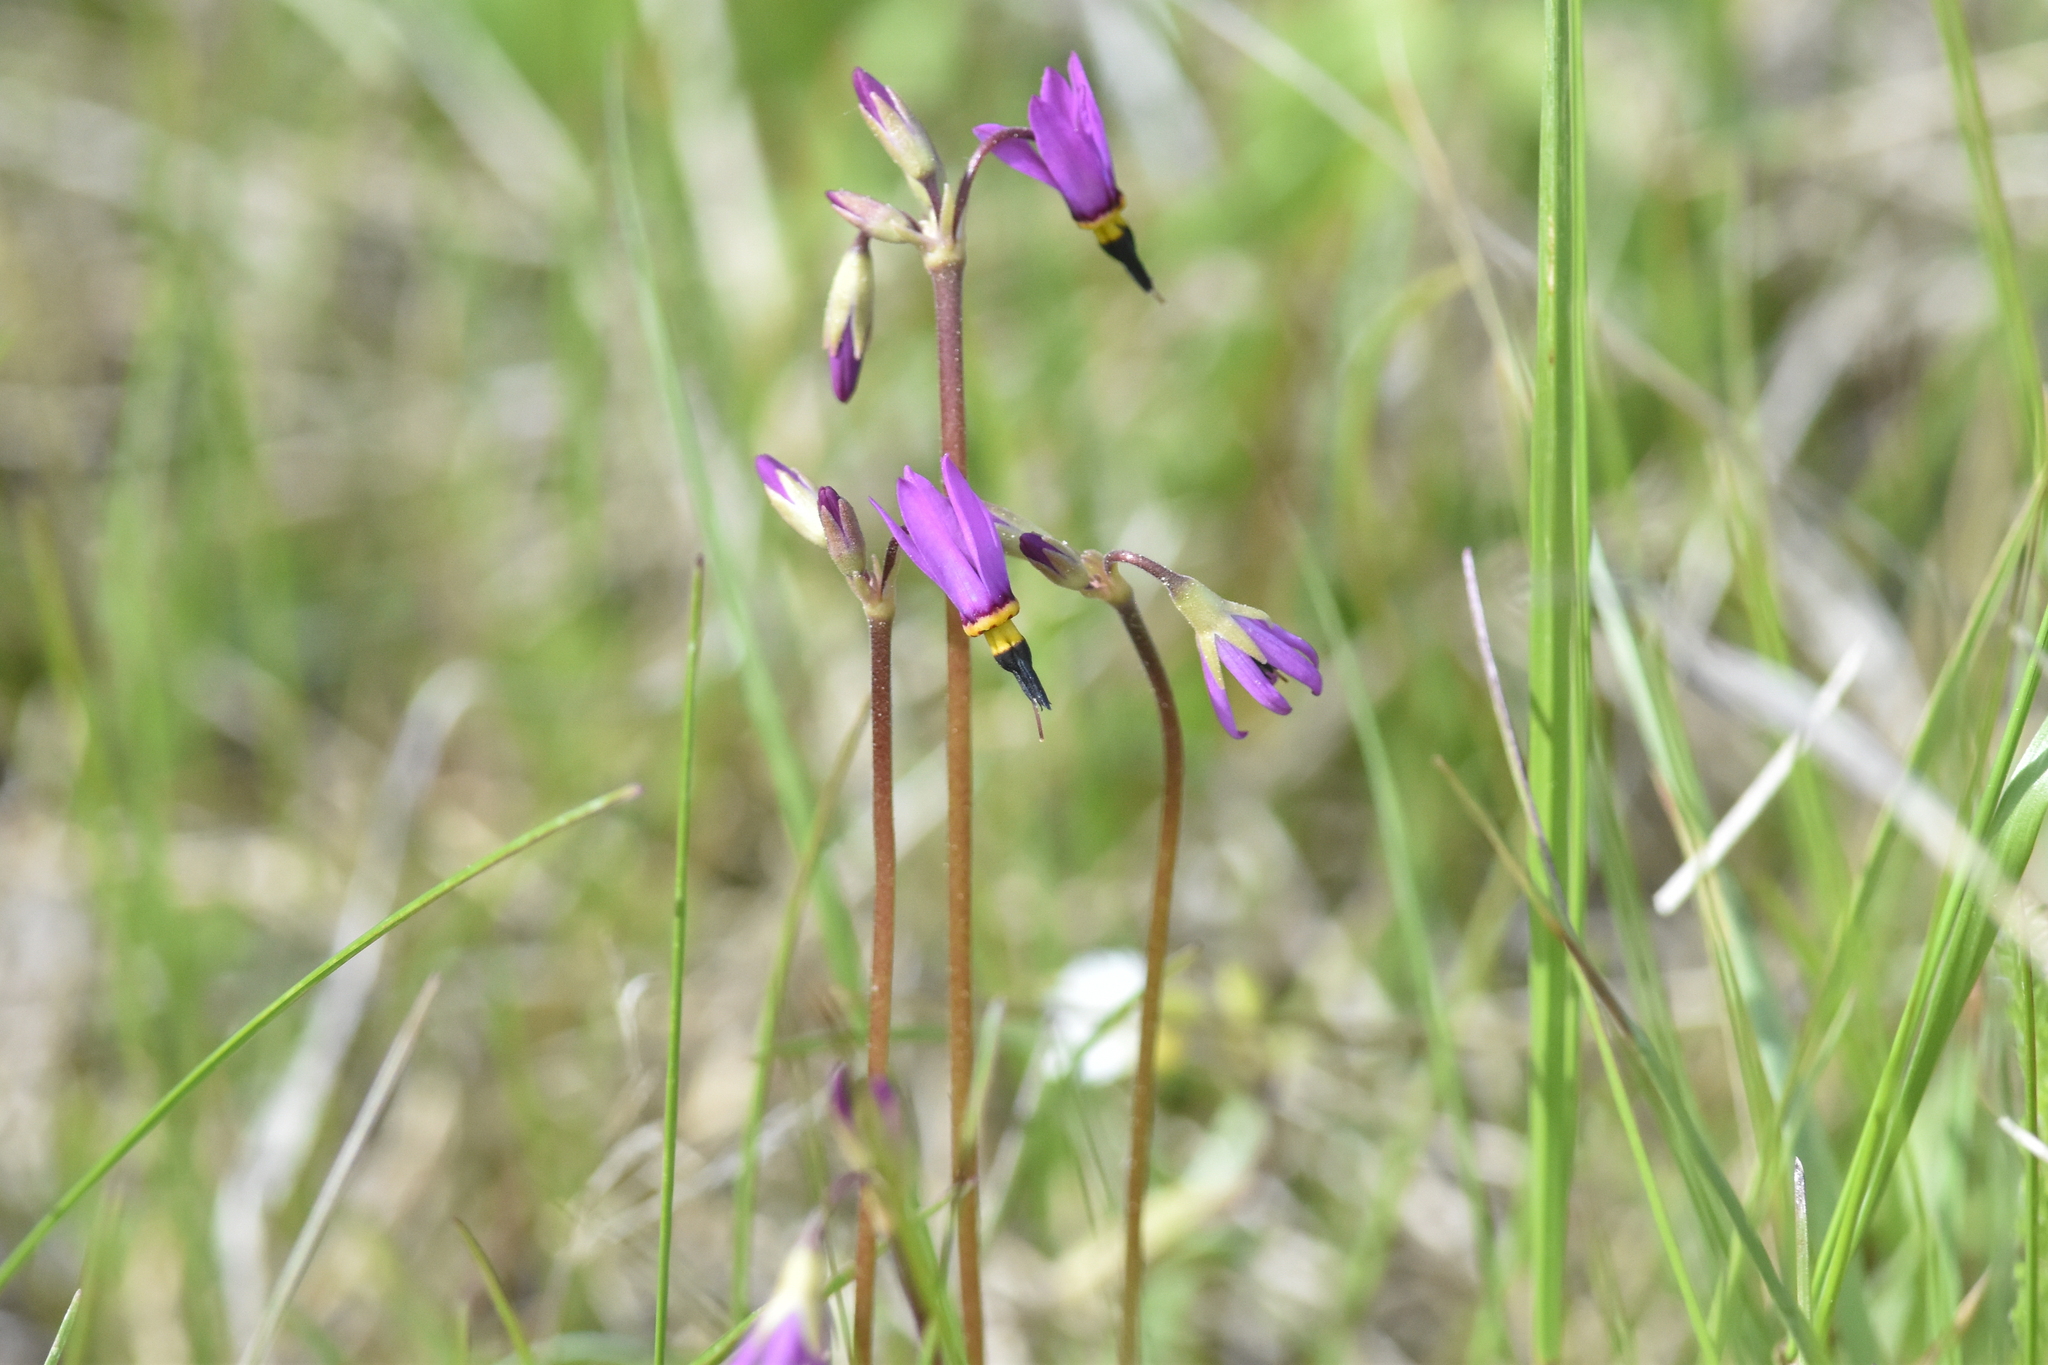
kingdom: Plantae
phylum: Tracheophyta
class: Magnoliopsida
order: Ericales
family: Primulaceae
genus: Dodecatheon
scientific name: Dodecatheon pulchellum
